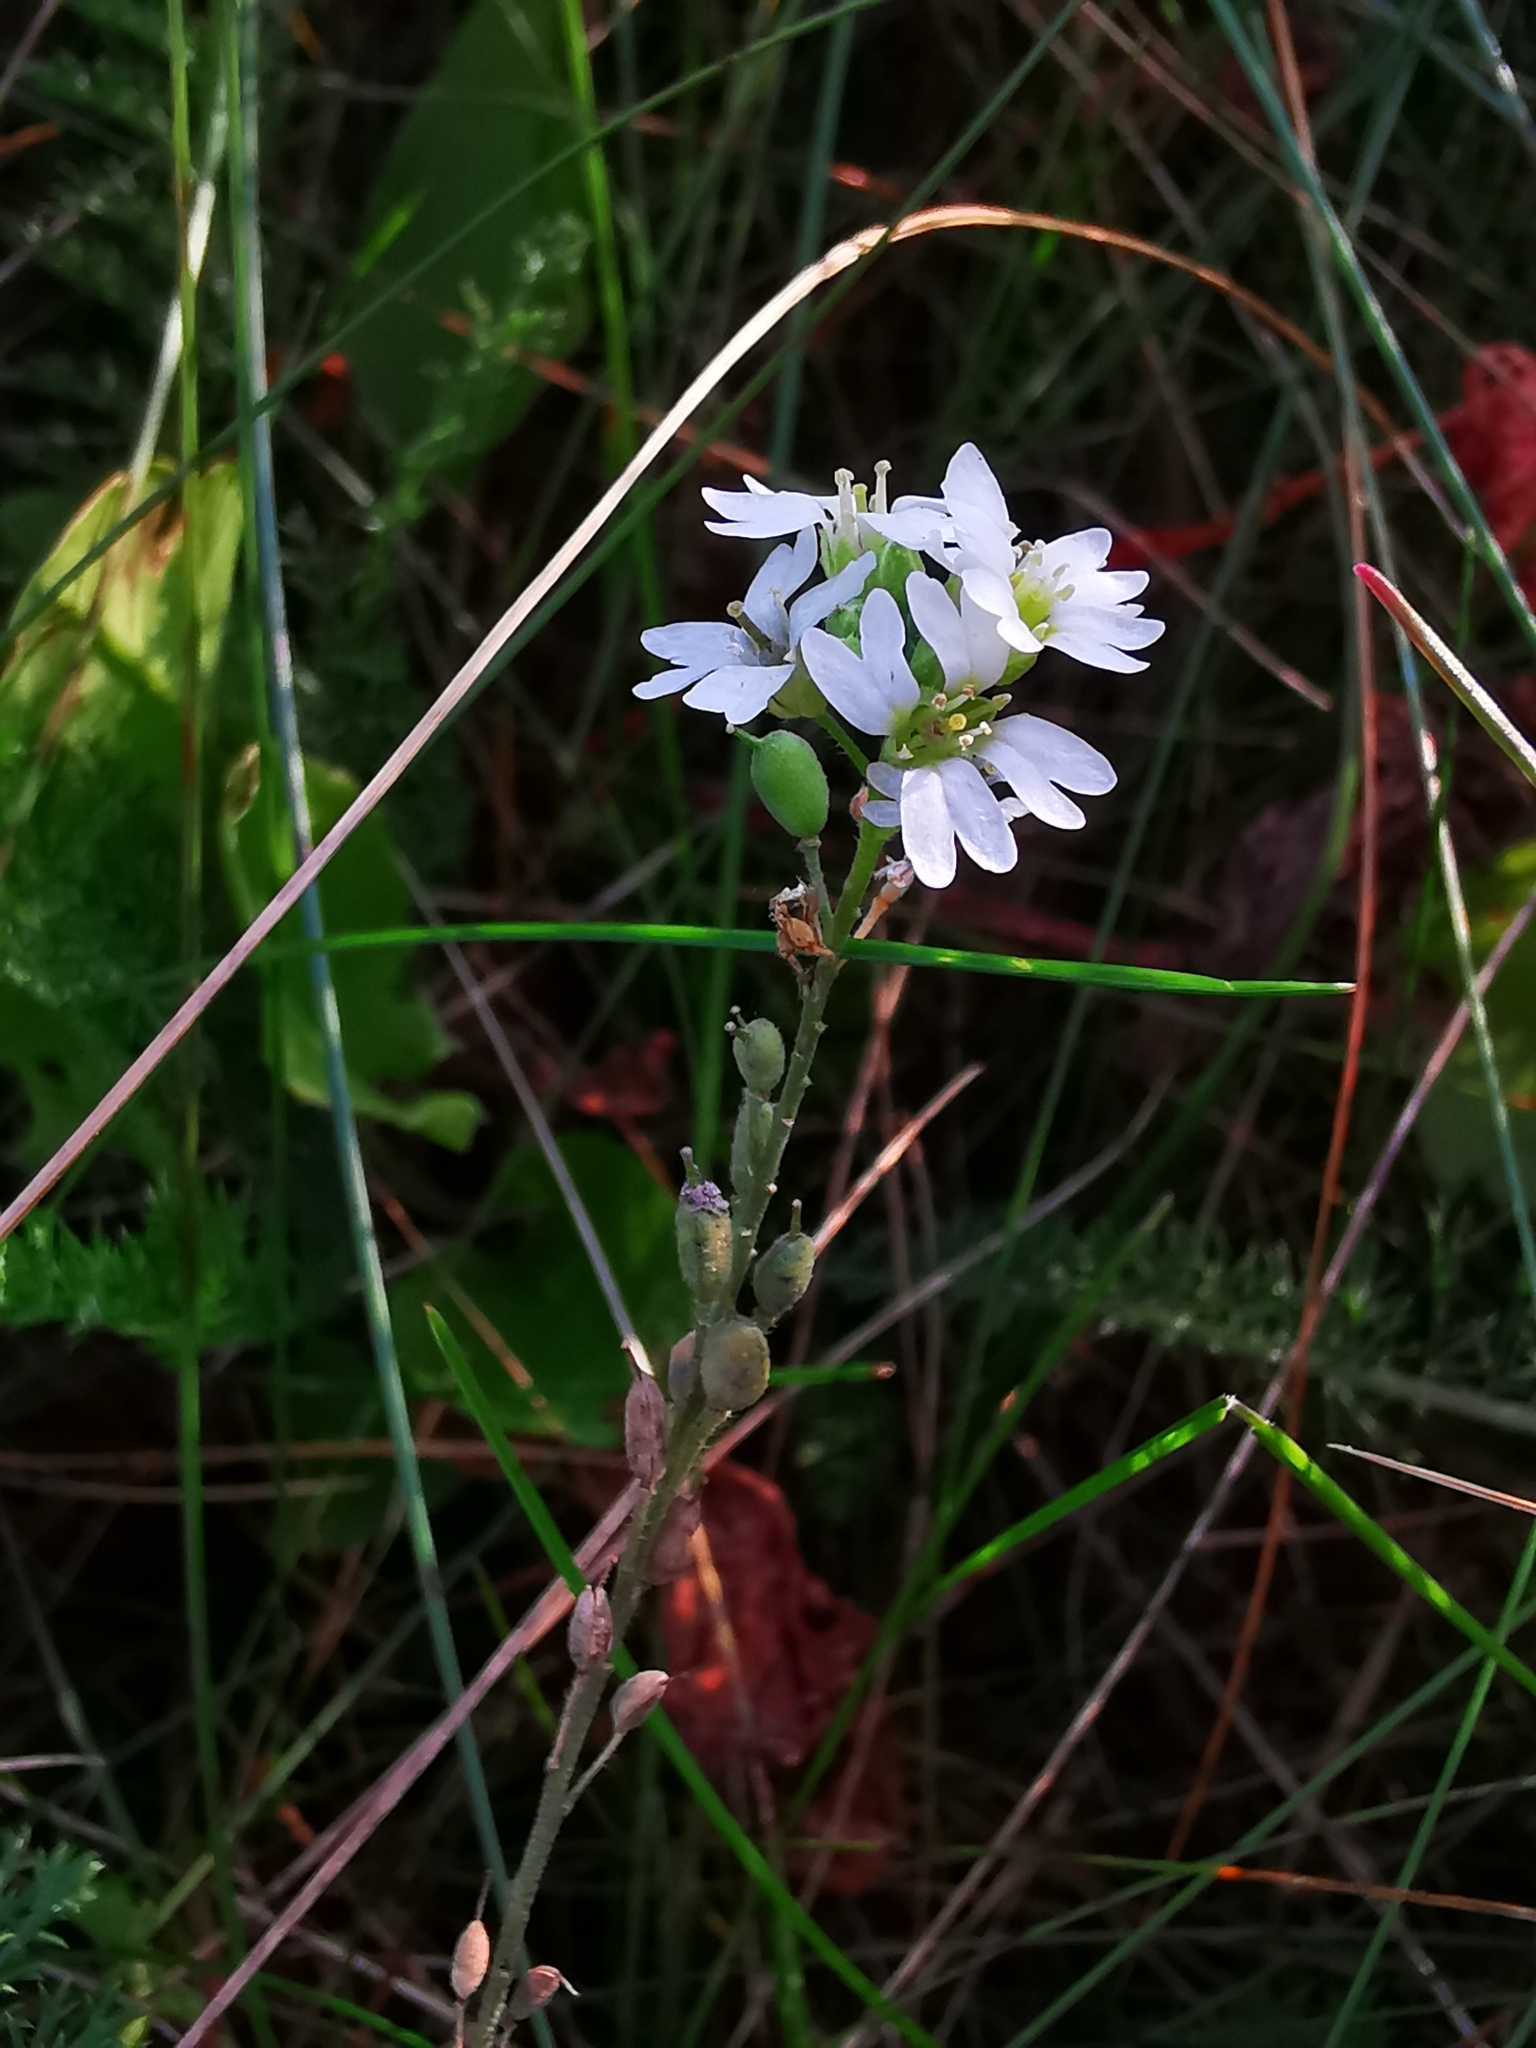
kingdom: Plantae
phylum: Tracheophyta
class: Magnoliopsida
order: Brassicales
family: Brassicaceae
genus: Berteroa
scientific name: Berteroa incana
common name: Hoary alison
